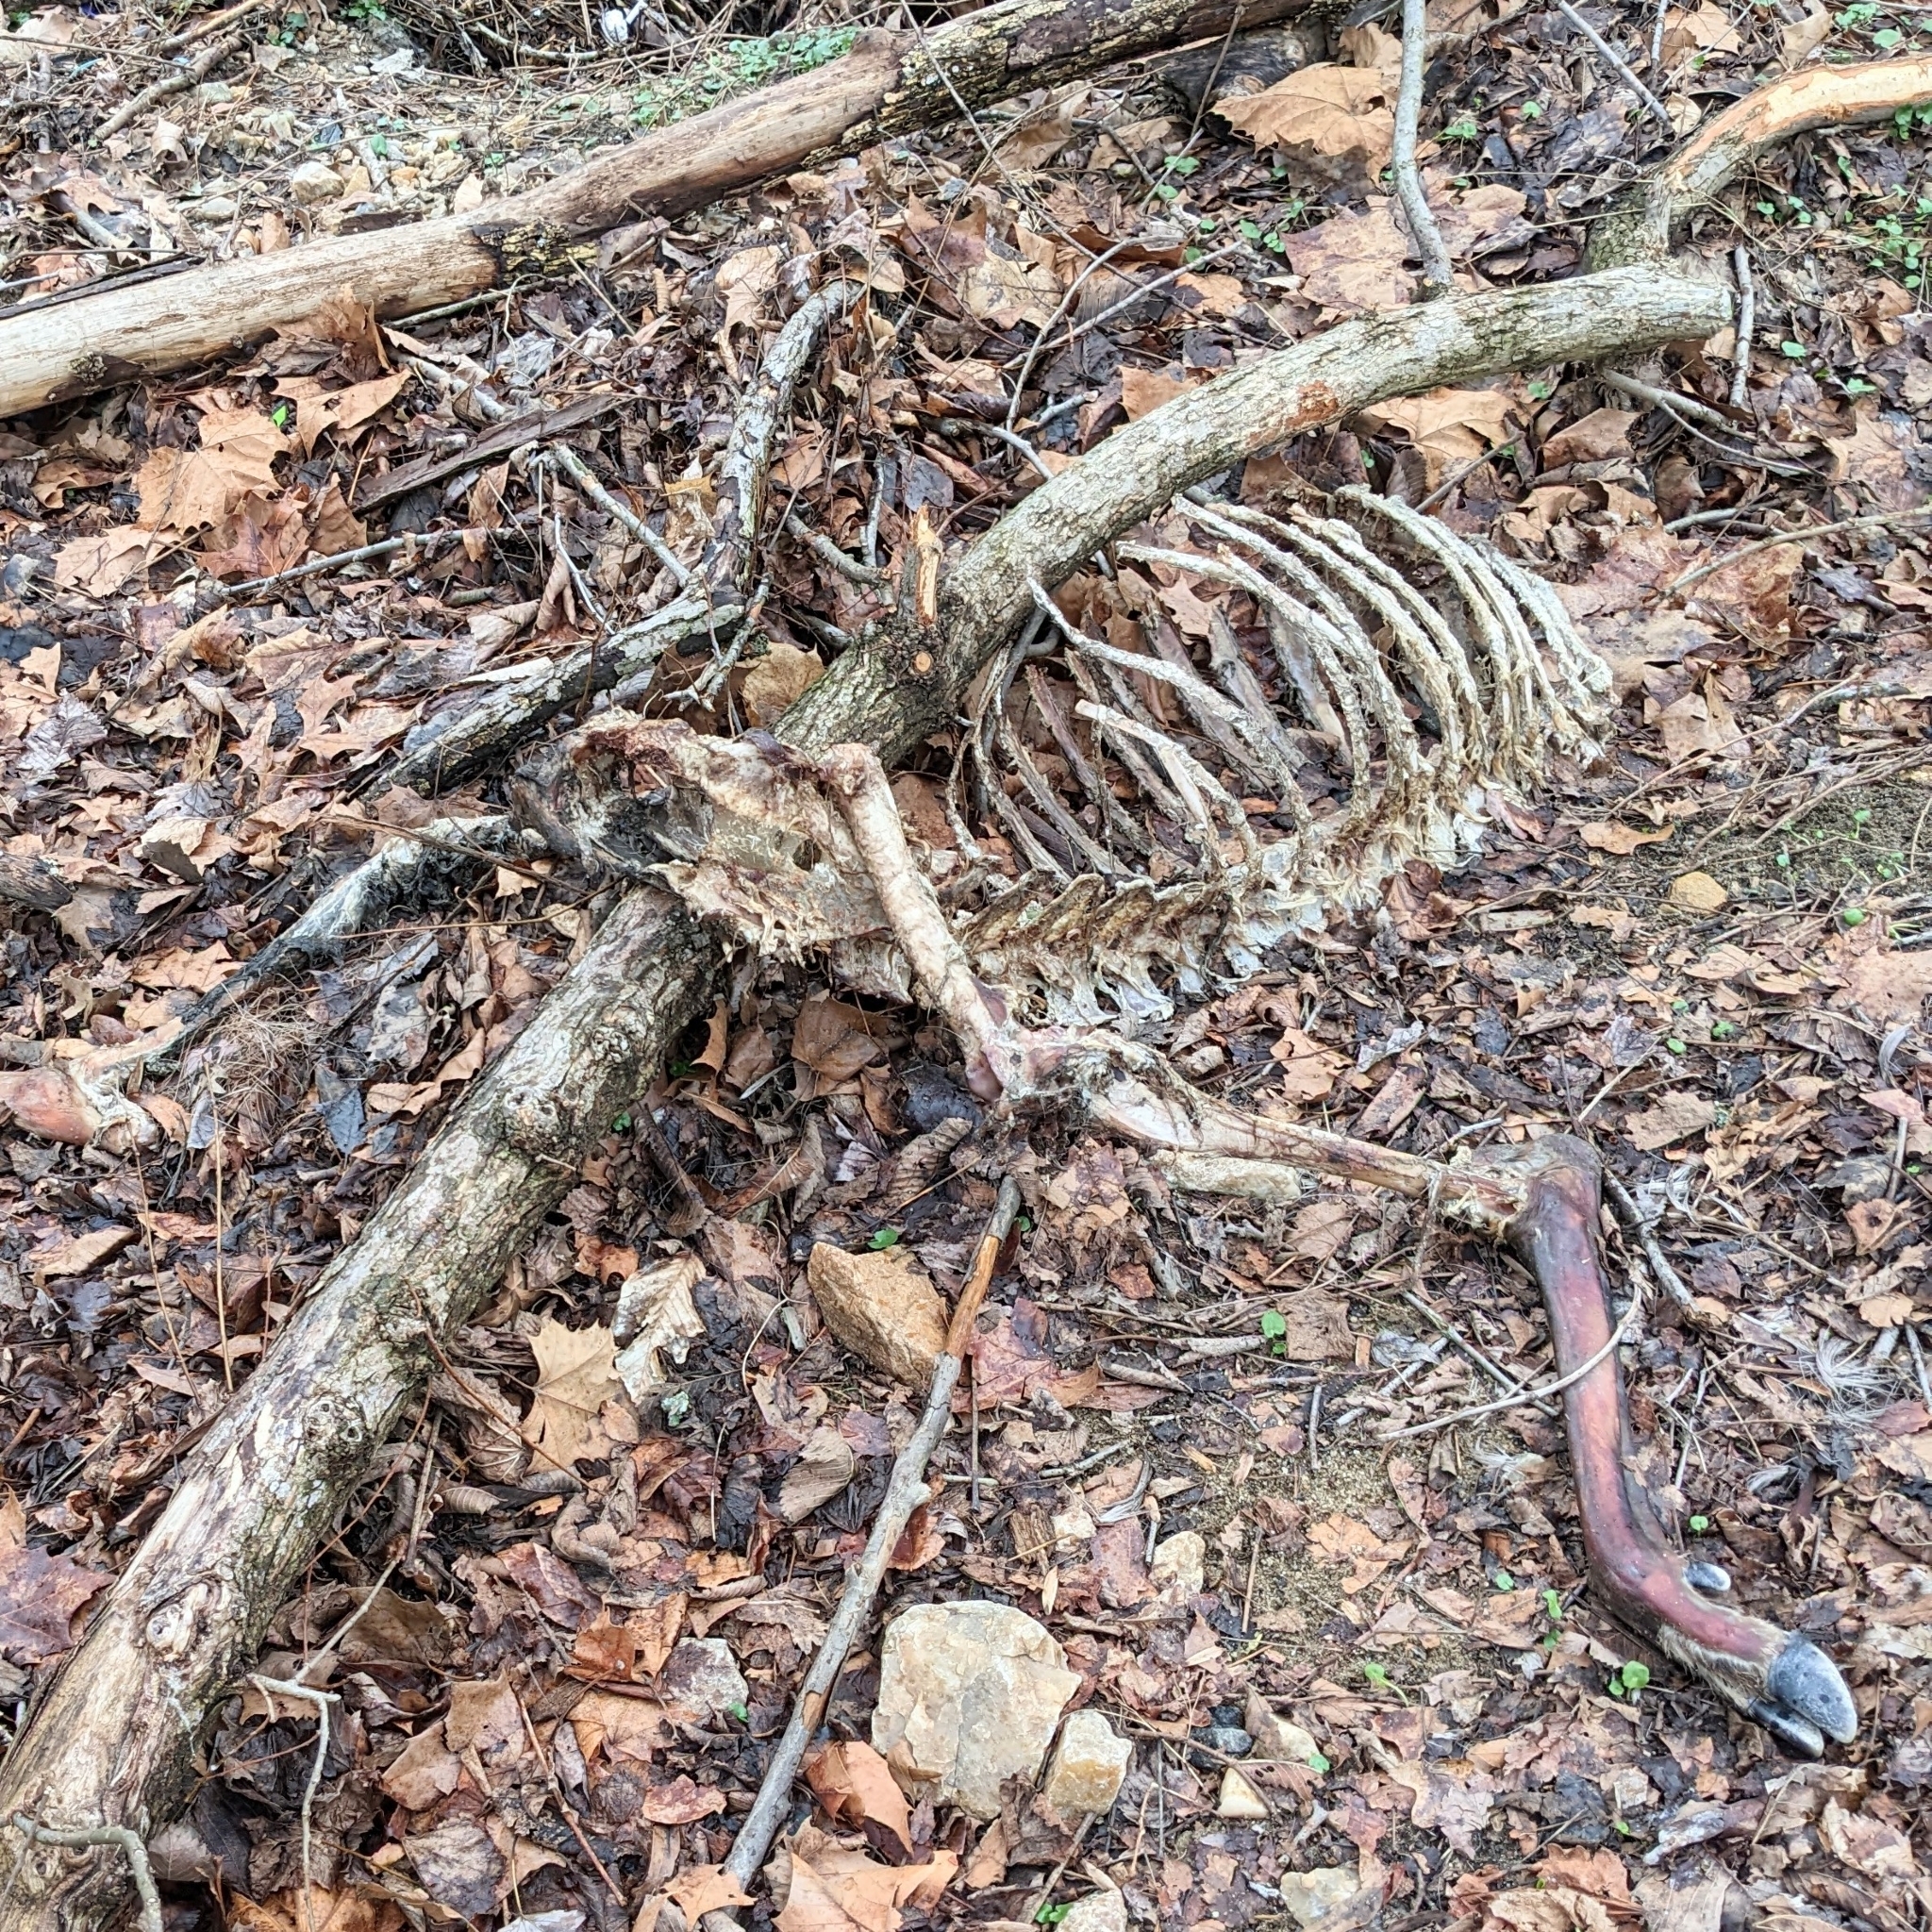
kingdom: Animalia
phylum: Chordata
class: Mammalia
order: Artiodactyla
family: Cervidae
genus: Odocoileus
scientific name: Odocoileus virginianus
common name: White-tailed deer
